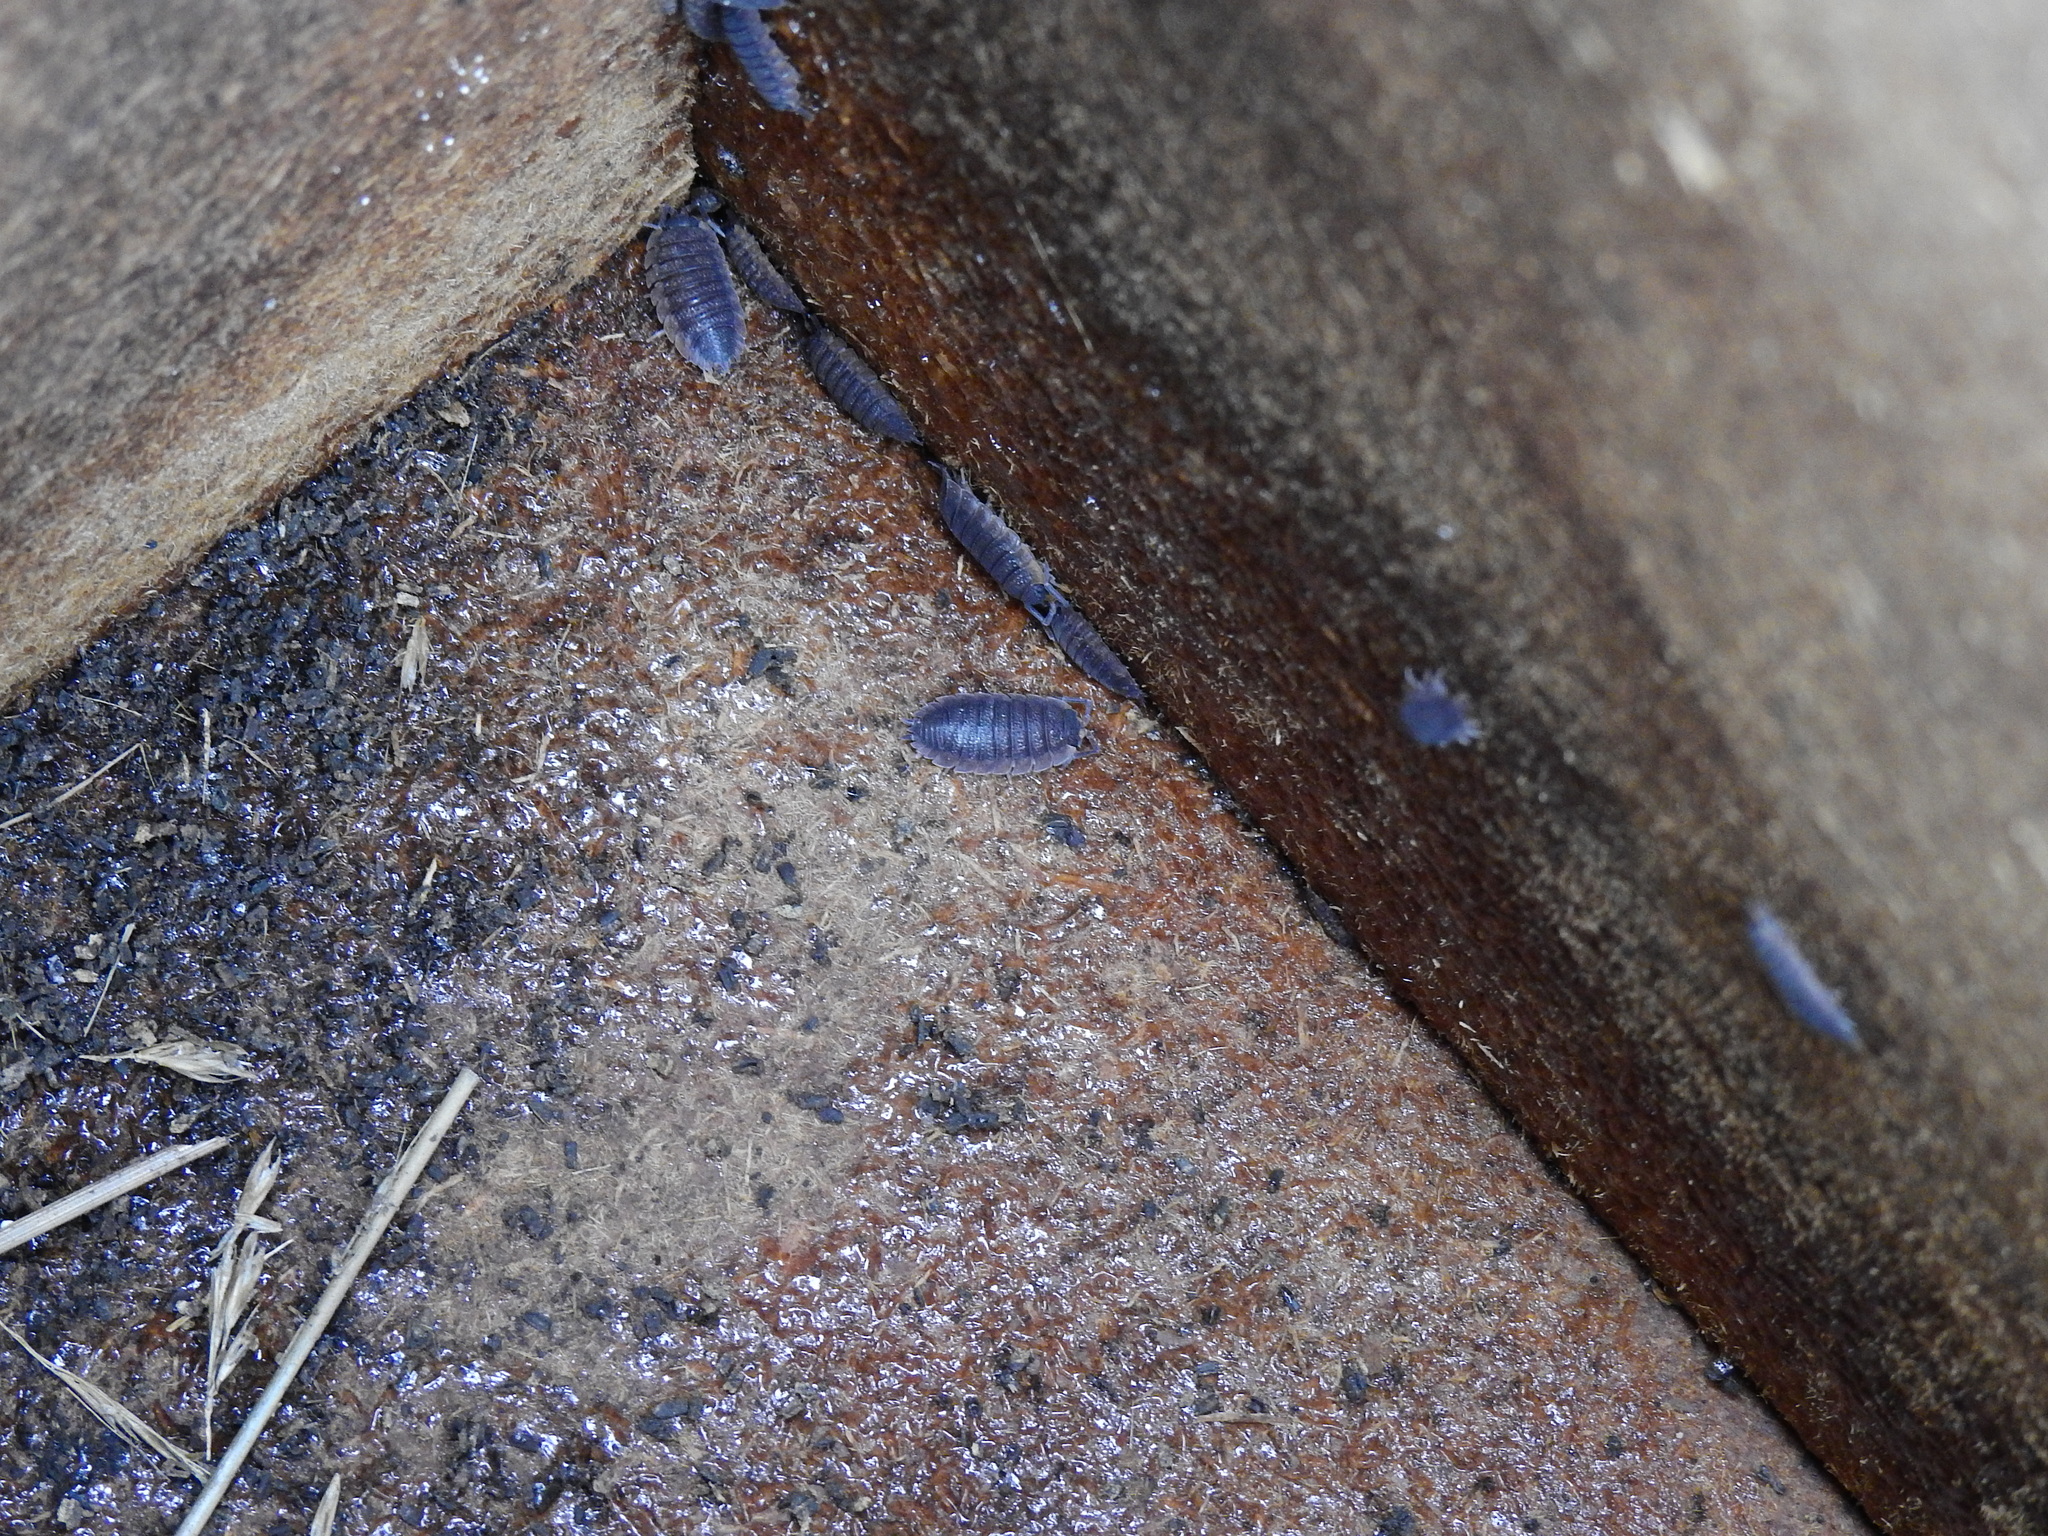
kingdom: Animalia
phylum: Arthropoda
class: Malacostraca
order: Isopoda
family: Porcellionidae
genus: Porcellio
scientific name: Porcellio scaber
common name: Common rough woodlouse
